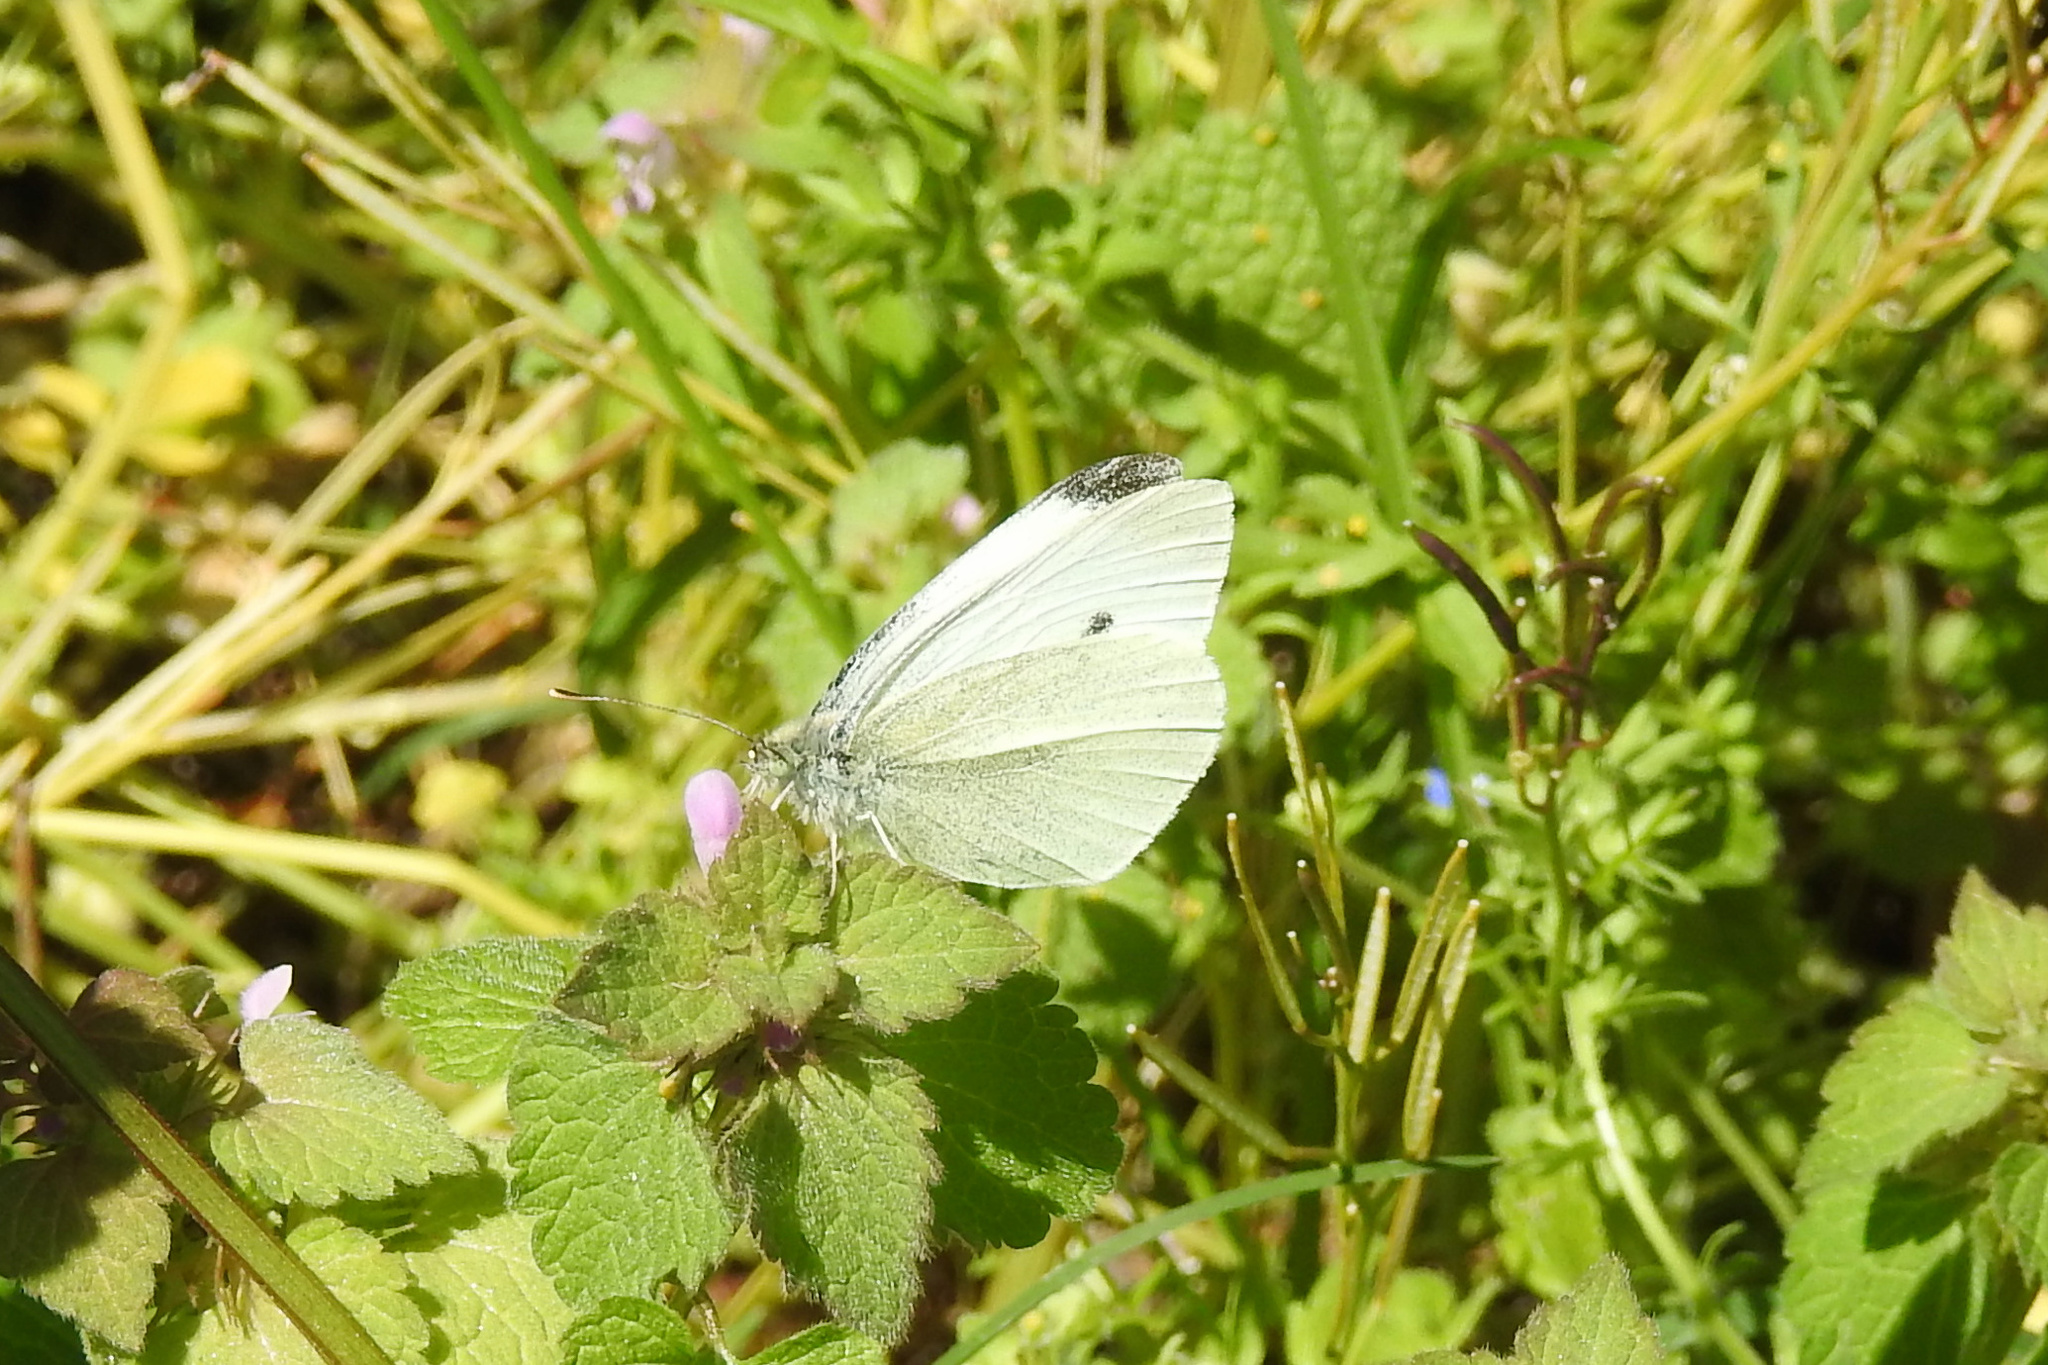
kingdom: Animalia
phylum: Arthropoda
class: Insecta
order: Lepidoptera
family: Pieridae
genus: Pieris
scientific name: Pieris rapae
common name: Small white
